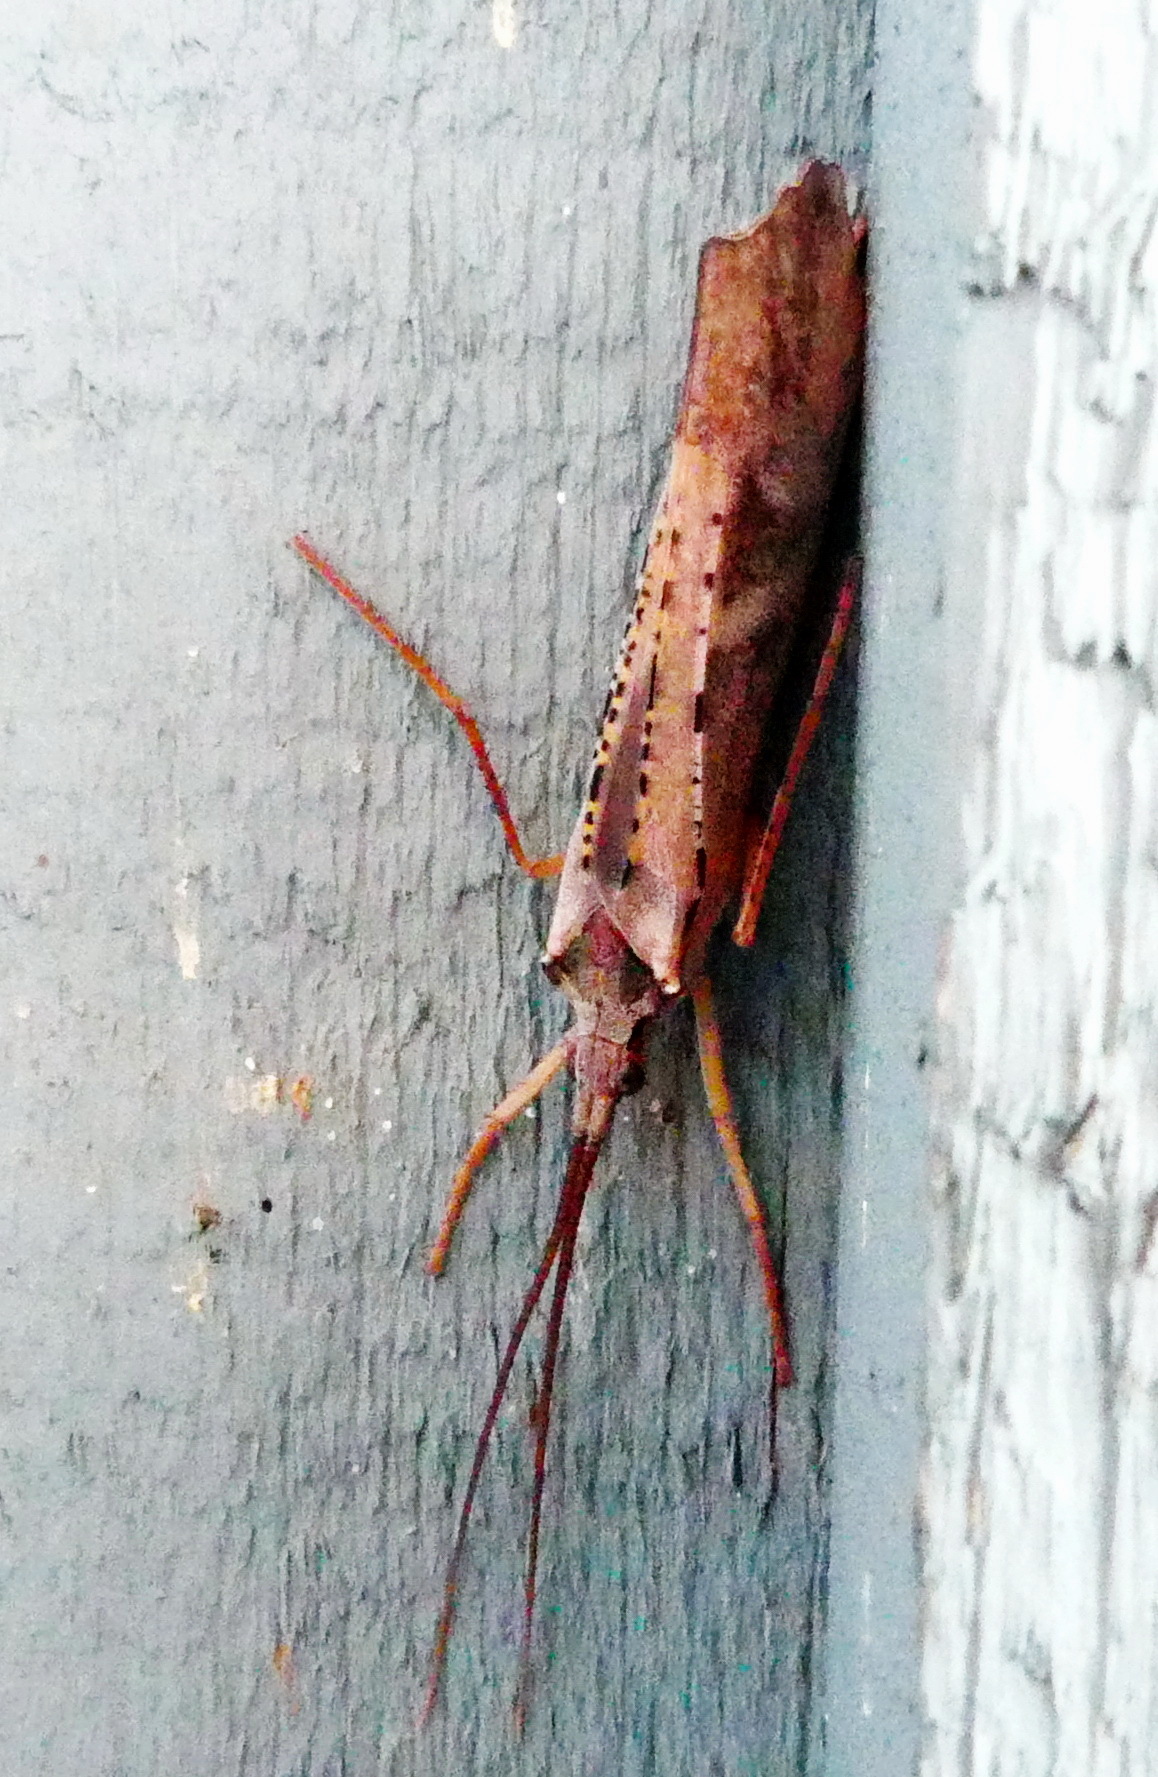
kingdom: Animalia
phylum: Arthropoda
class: Insecta
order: Trichoptera
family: Limnephilidae
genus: Nemotaulius
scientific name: Nemotaulius hostilis
